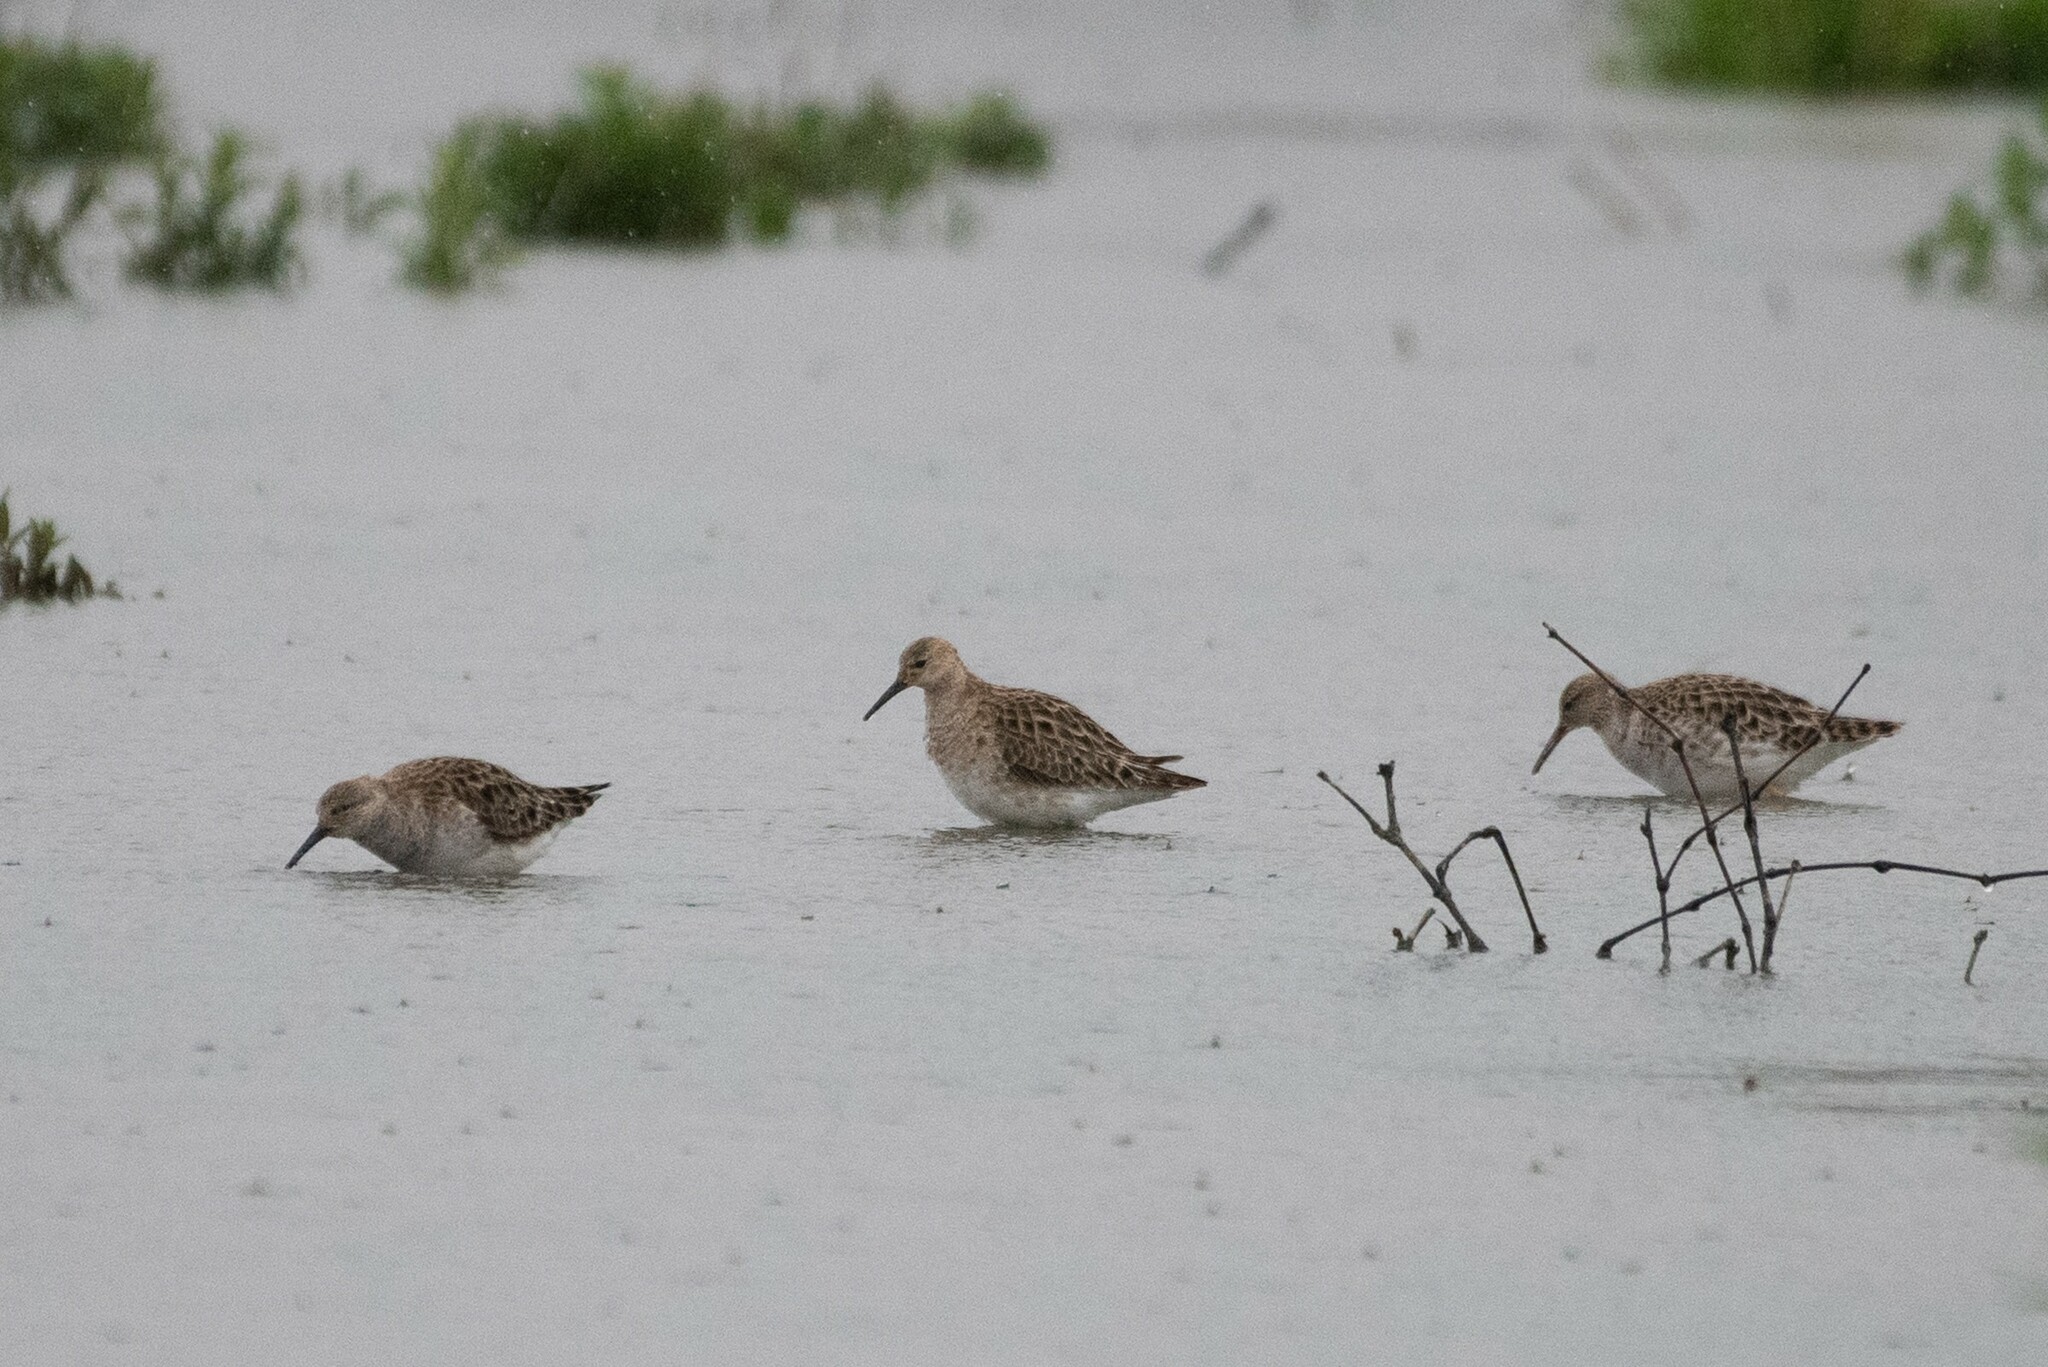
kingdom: Animalia
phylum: Chordata
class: Aves
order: Charadriiformes
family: Scolopacidae
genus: Calidris
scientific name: Calidris pugnax
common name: Ruff
